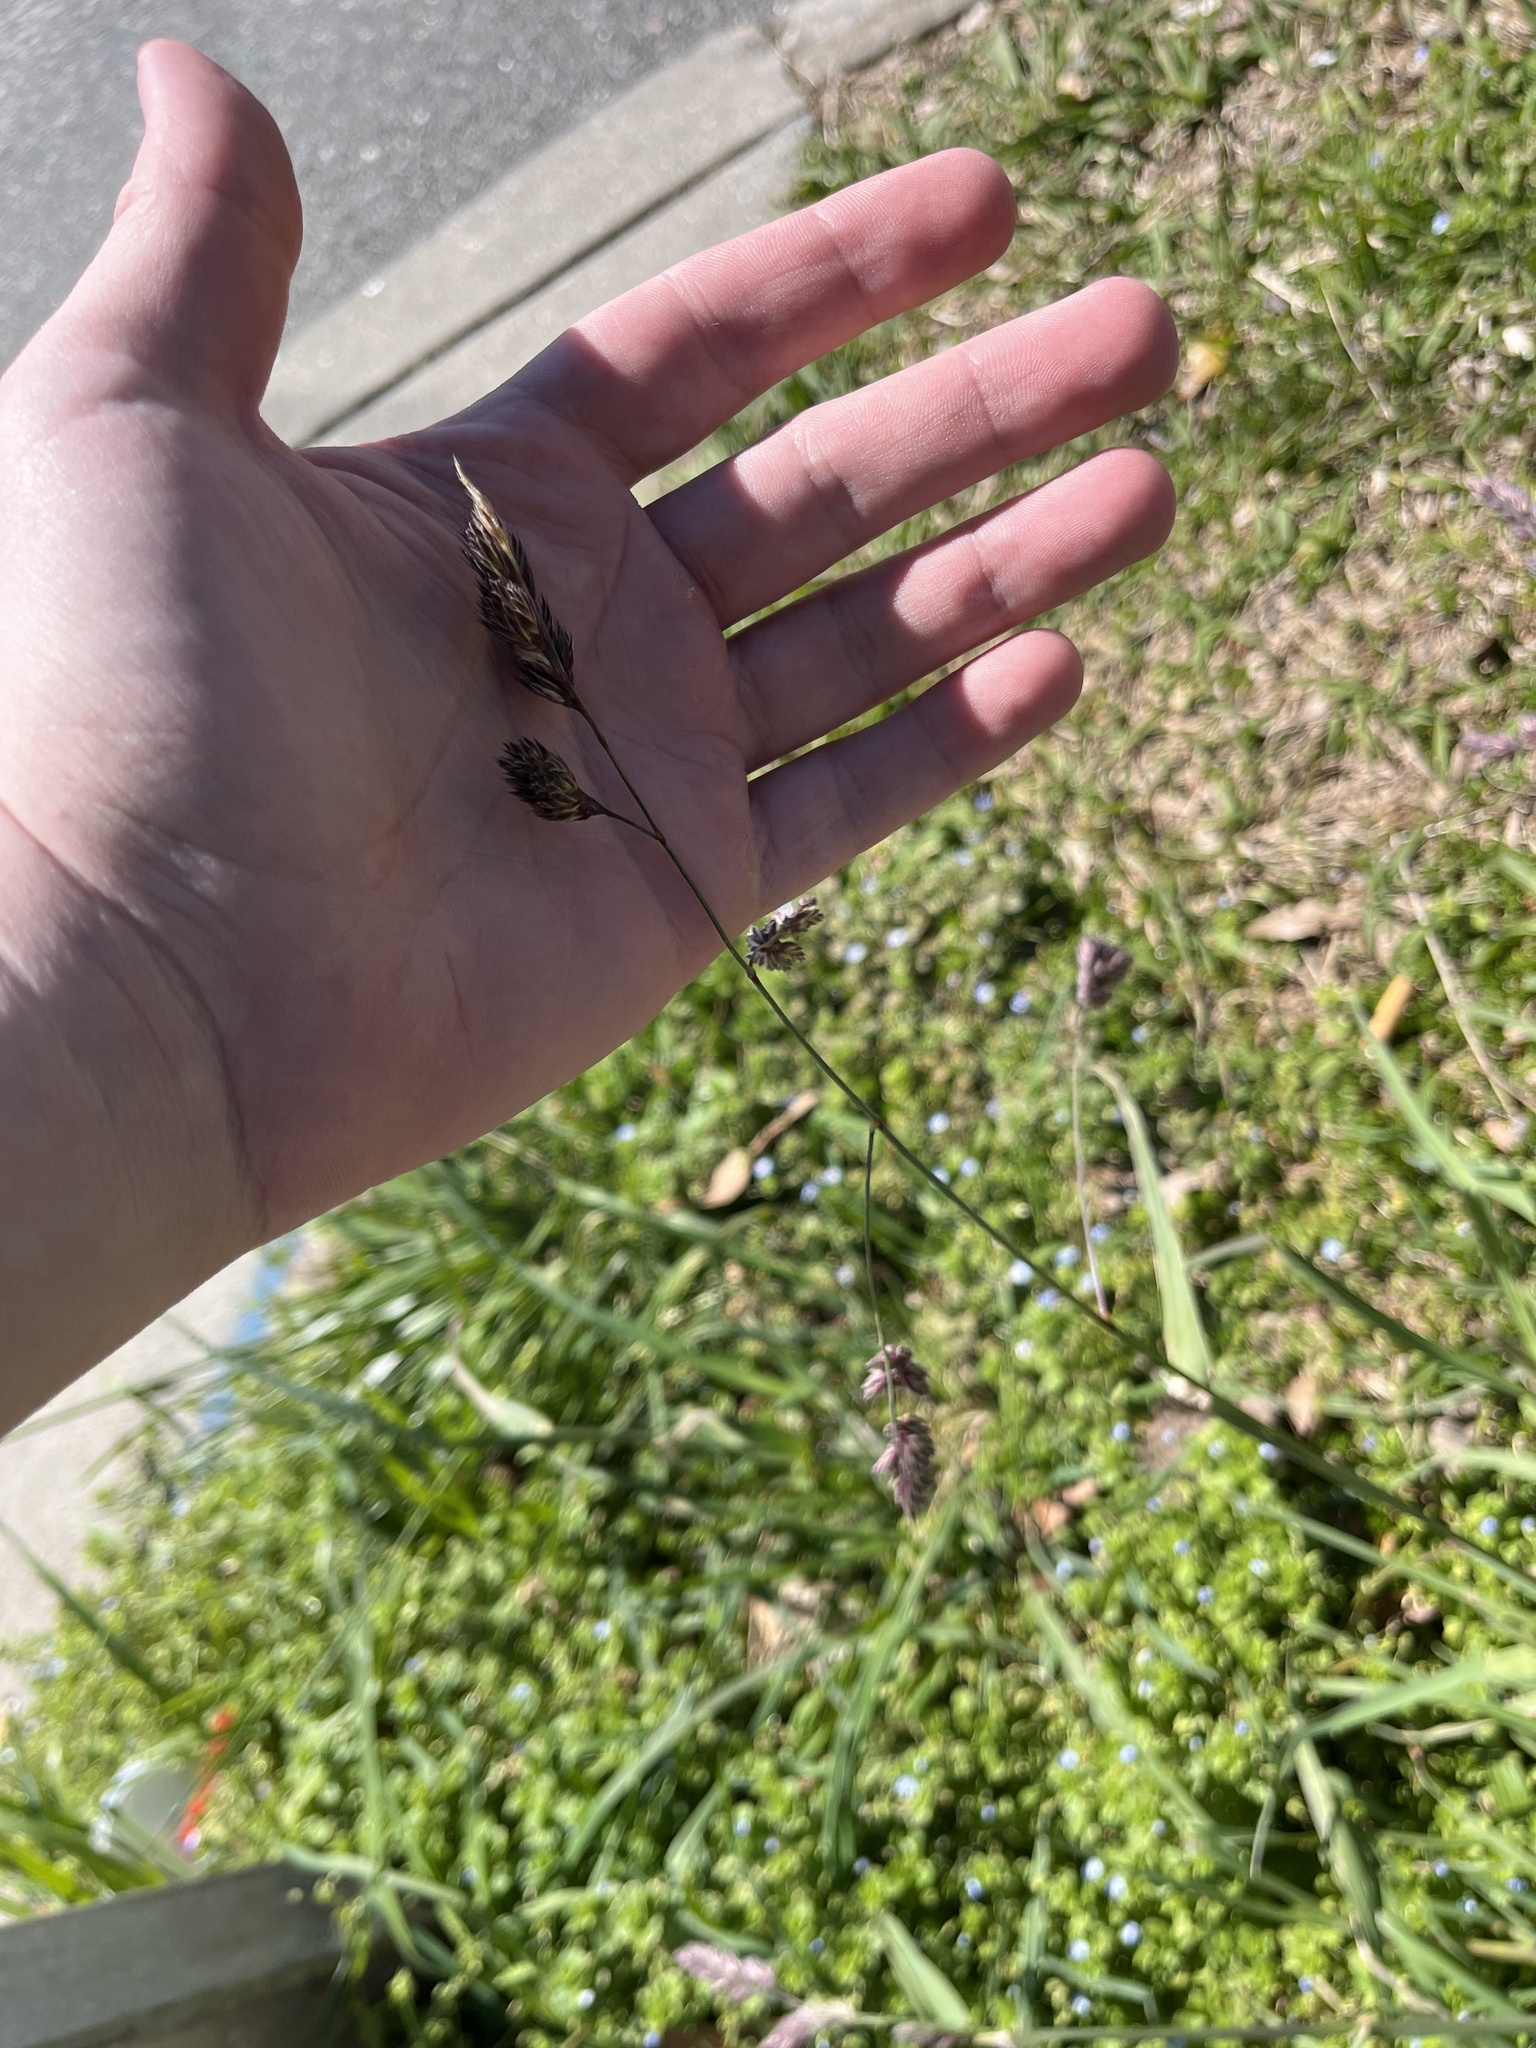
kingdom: Plantae
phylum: Tracheophyta
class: Liliopsida
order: Poales
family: Poaceae
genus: Dactylis
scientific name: Dactylis glomerata
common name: Orchardgrass
